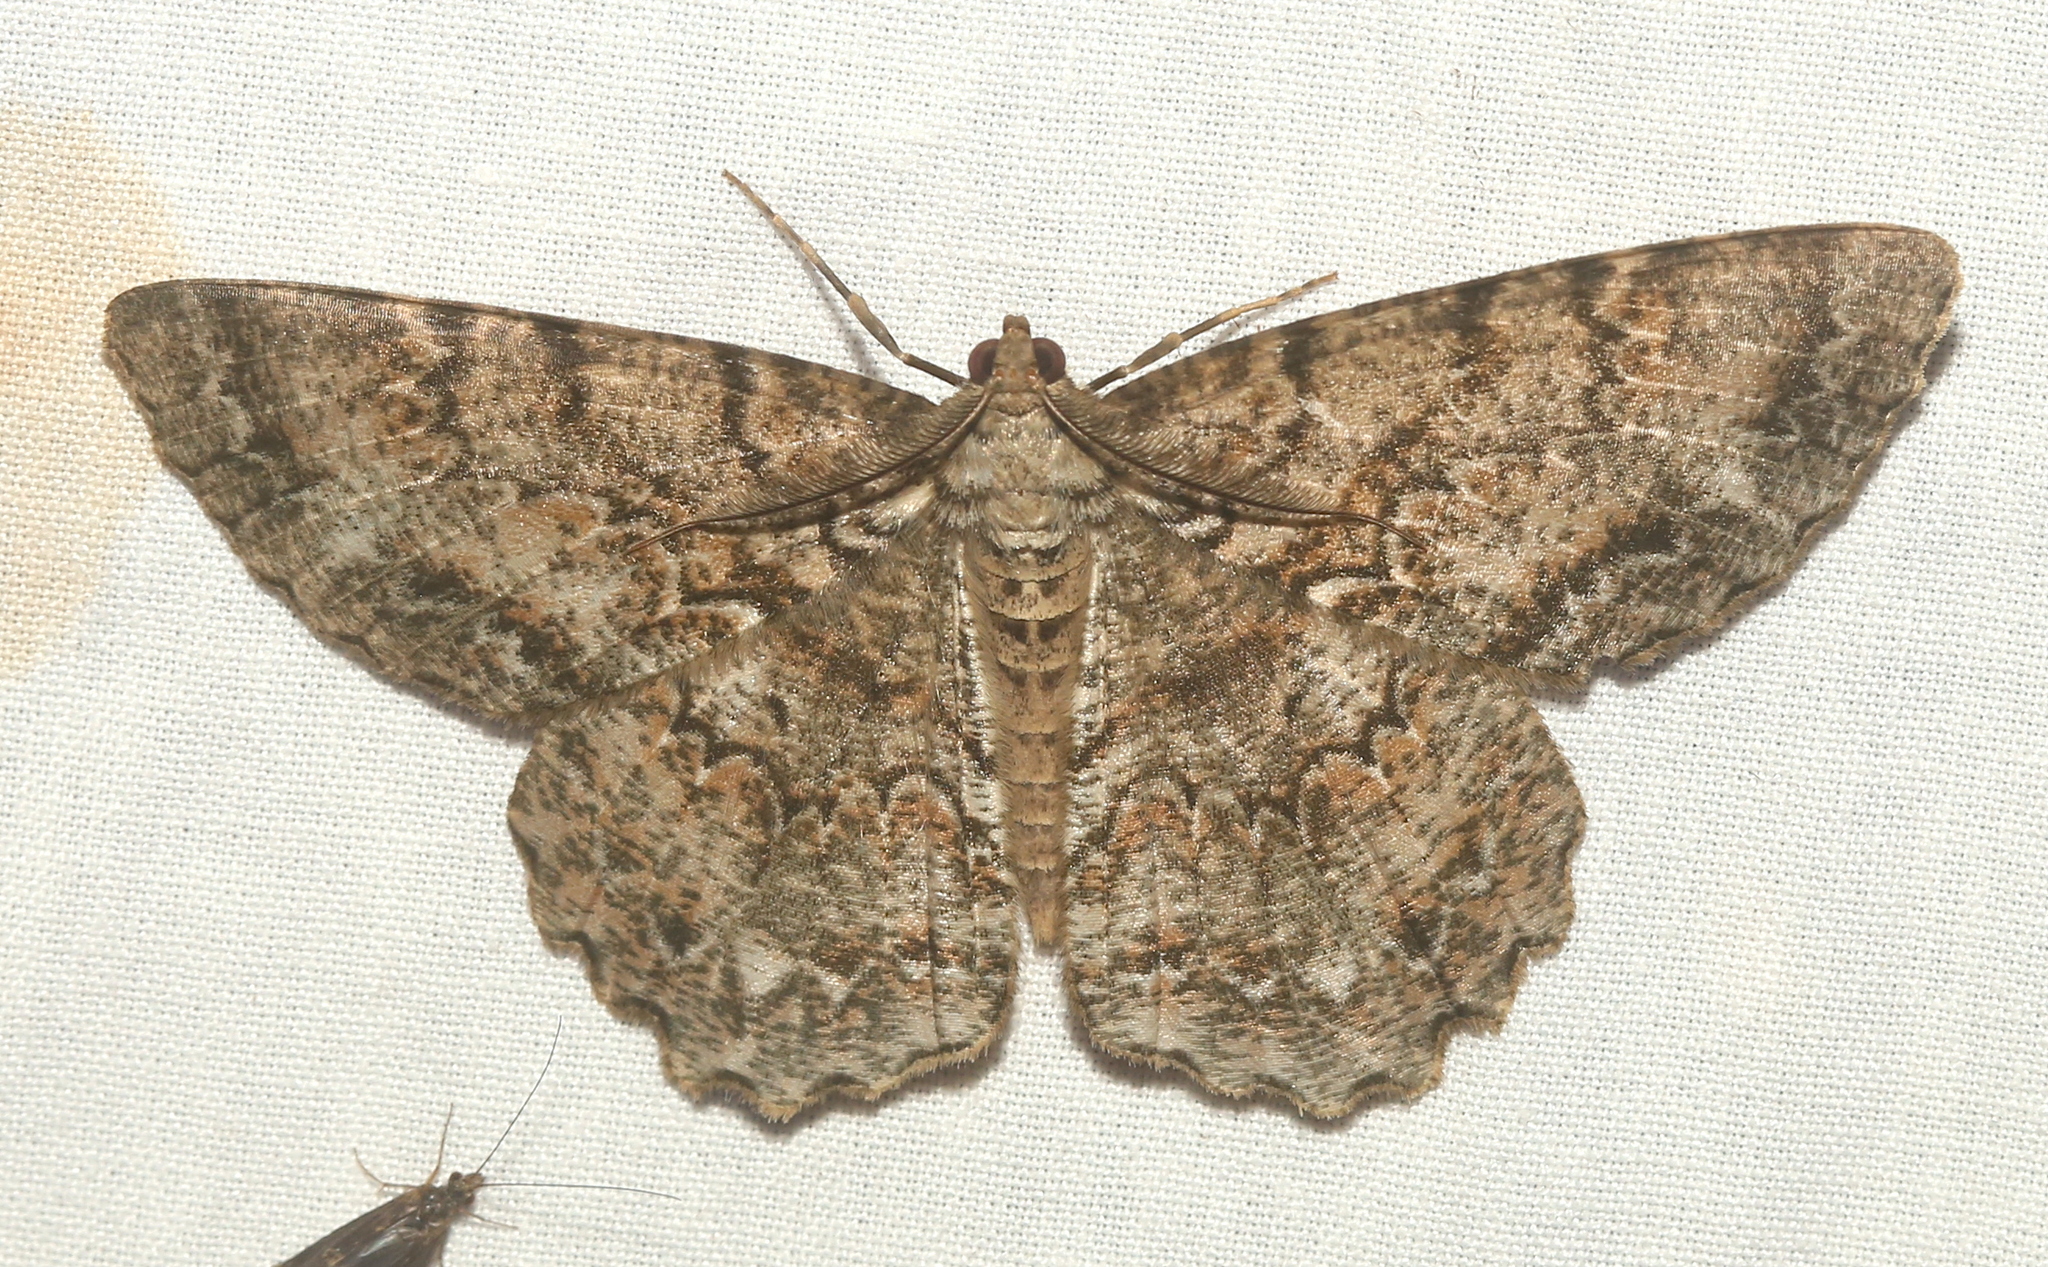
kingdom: Animalia
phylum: Arthropoda
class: Insecta
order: Lepidoptera
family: Geometridae
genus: Epimecis
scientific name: Epimecis hortaria
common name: Tulip-tree beauty
